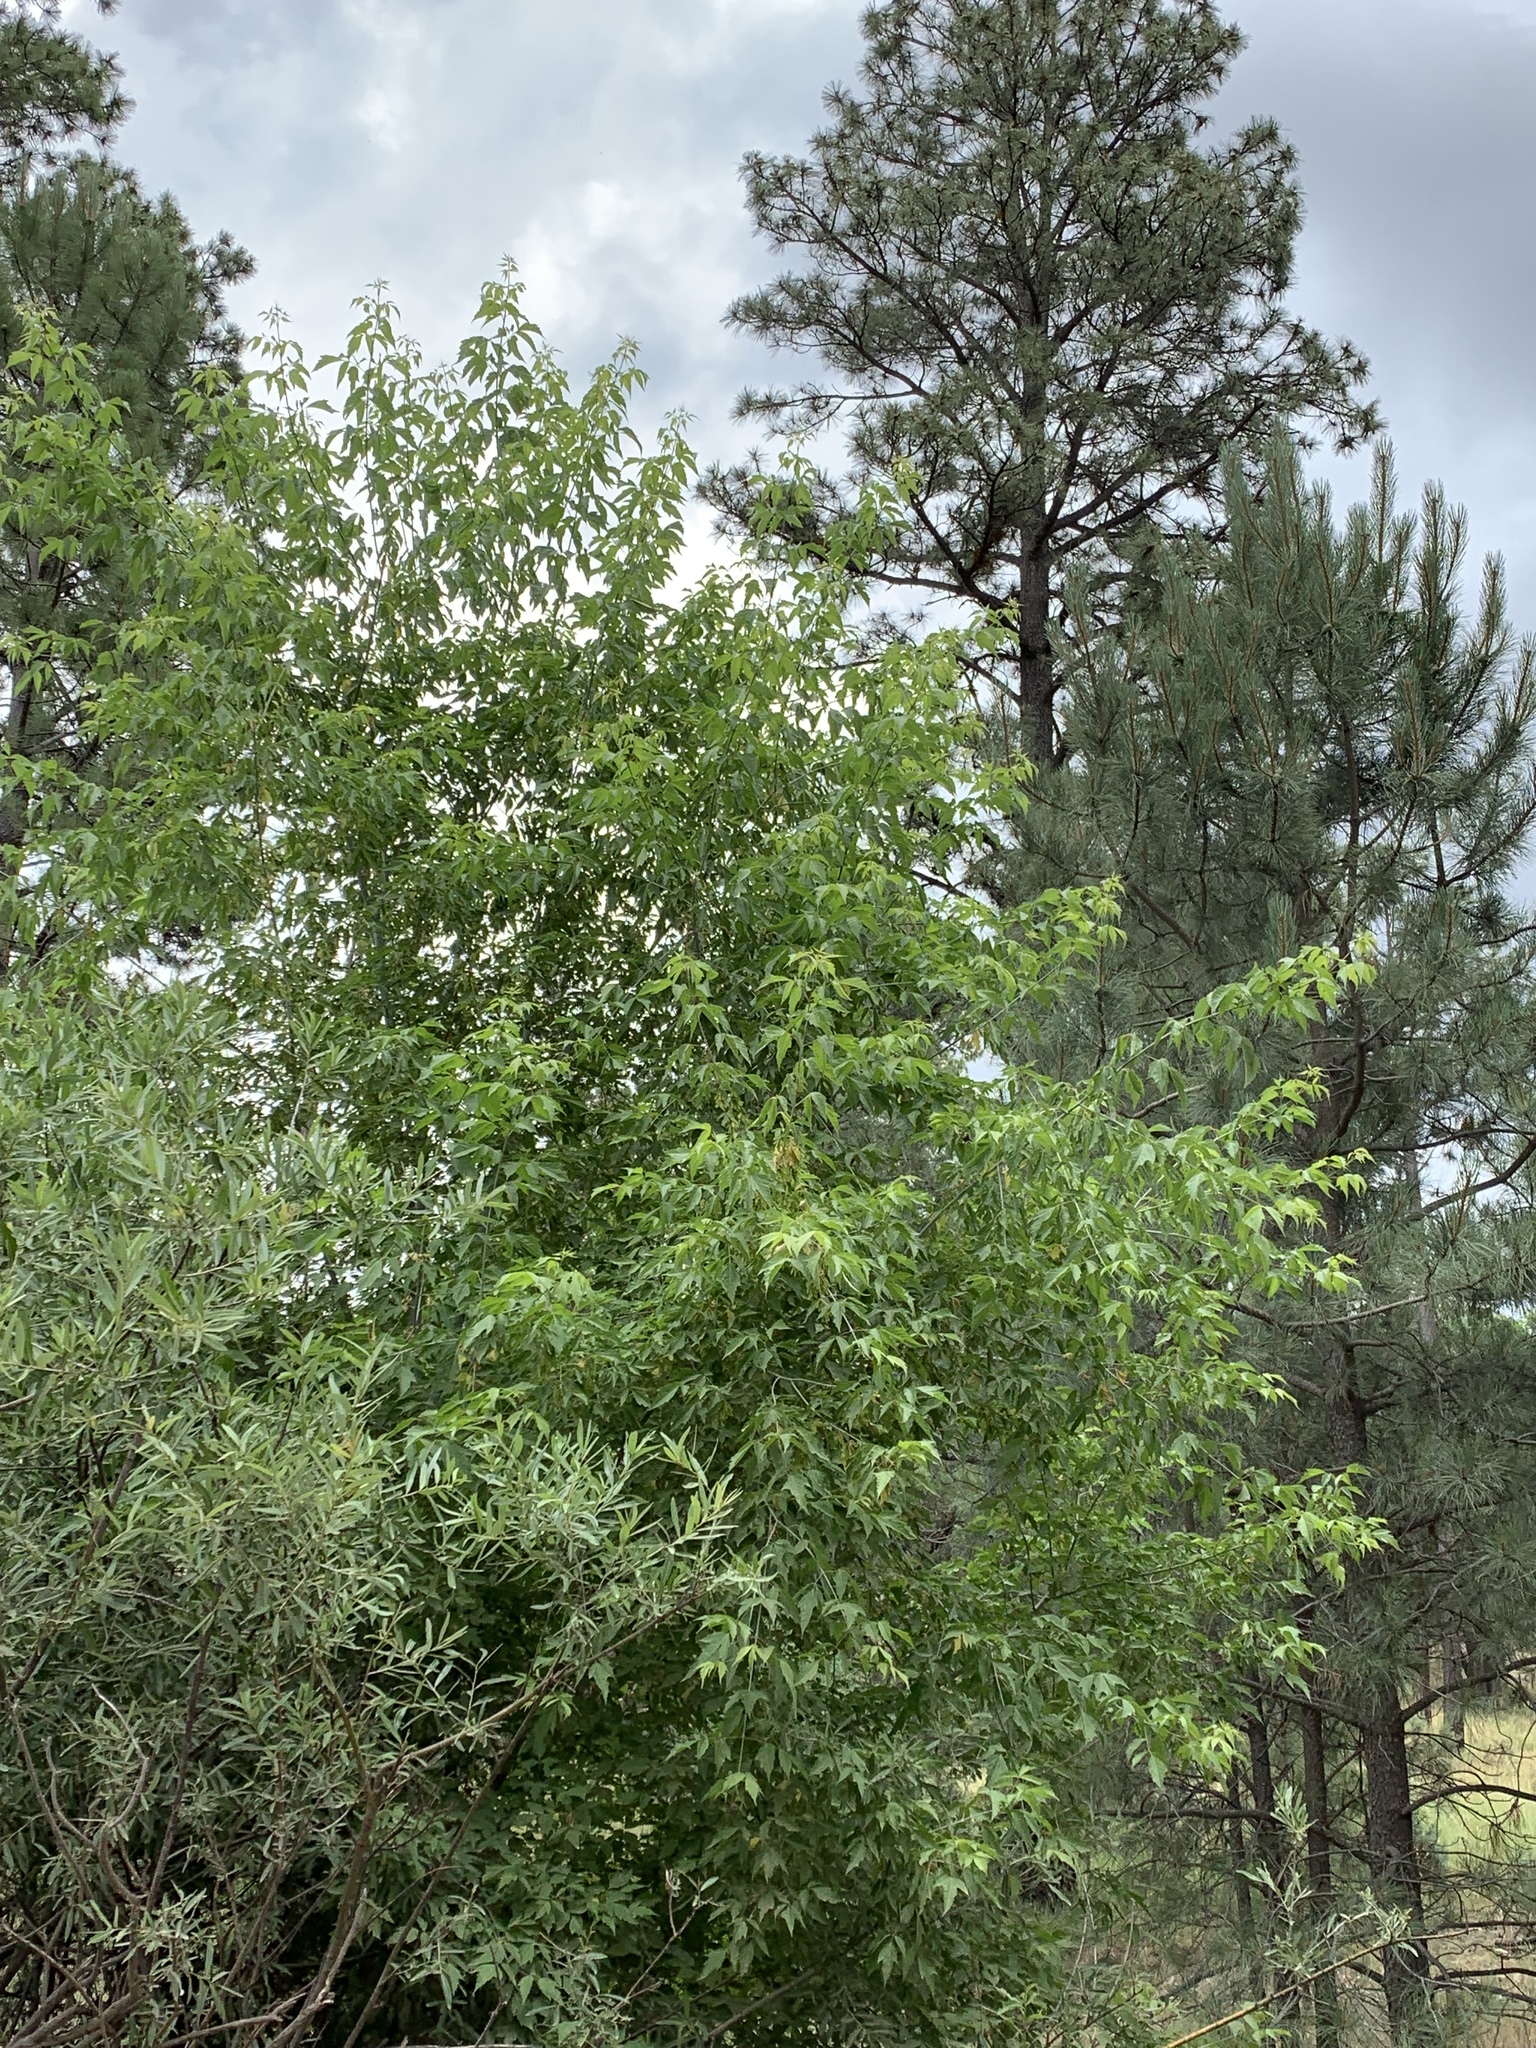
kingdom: Plantae
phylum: Tracheophyta
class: Magnoliopsida
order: Sapindales
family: Sapindaceae
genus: Acer
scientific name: Acer negundo
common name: Ashleaf maple
